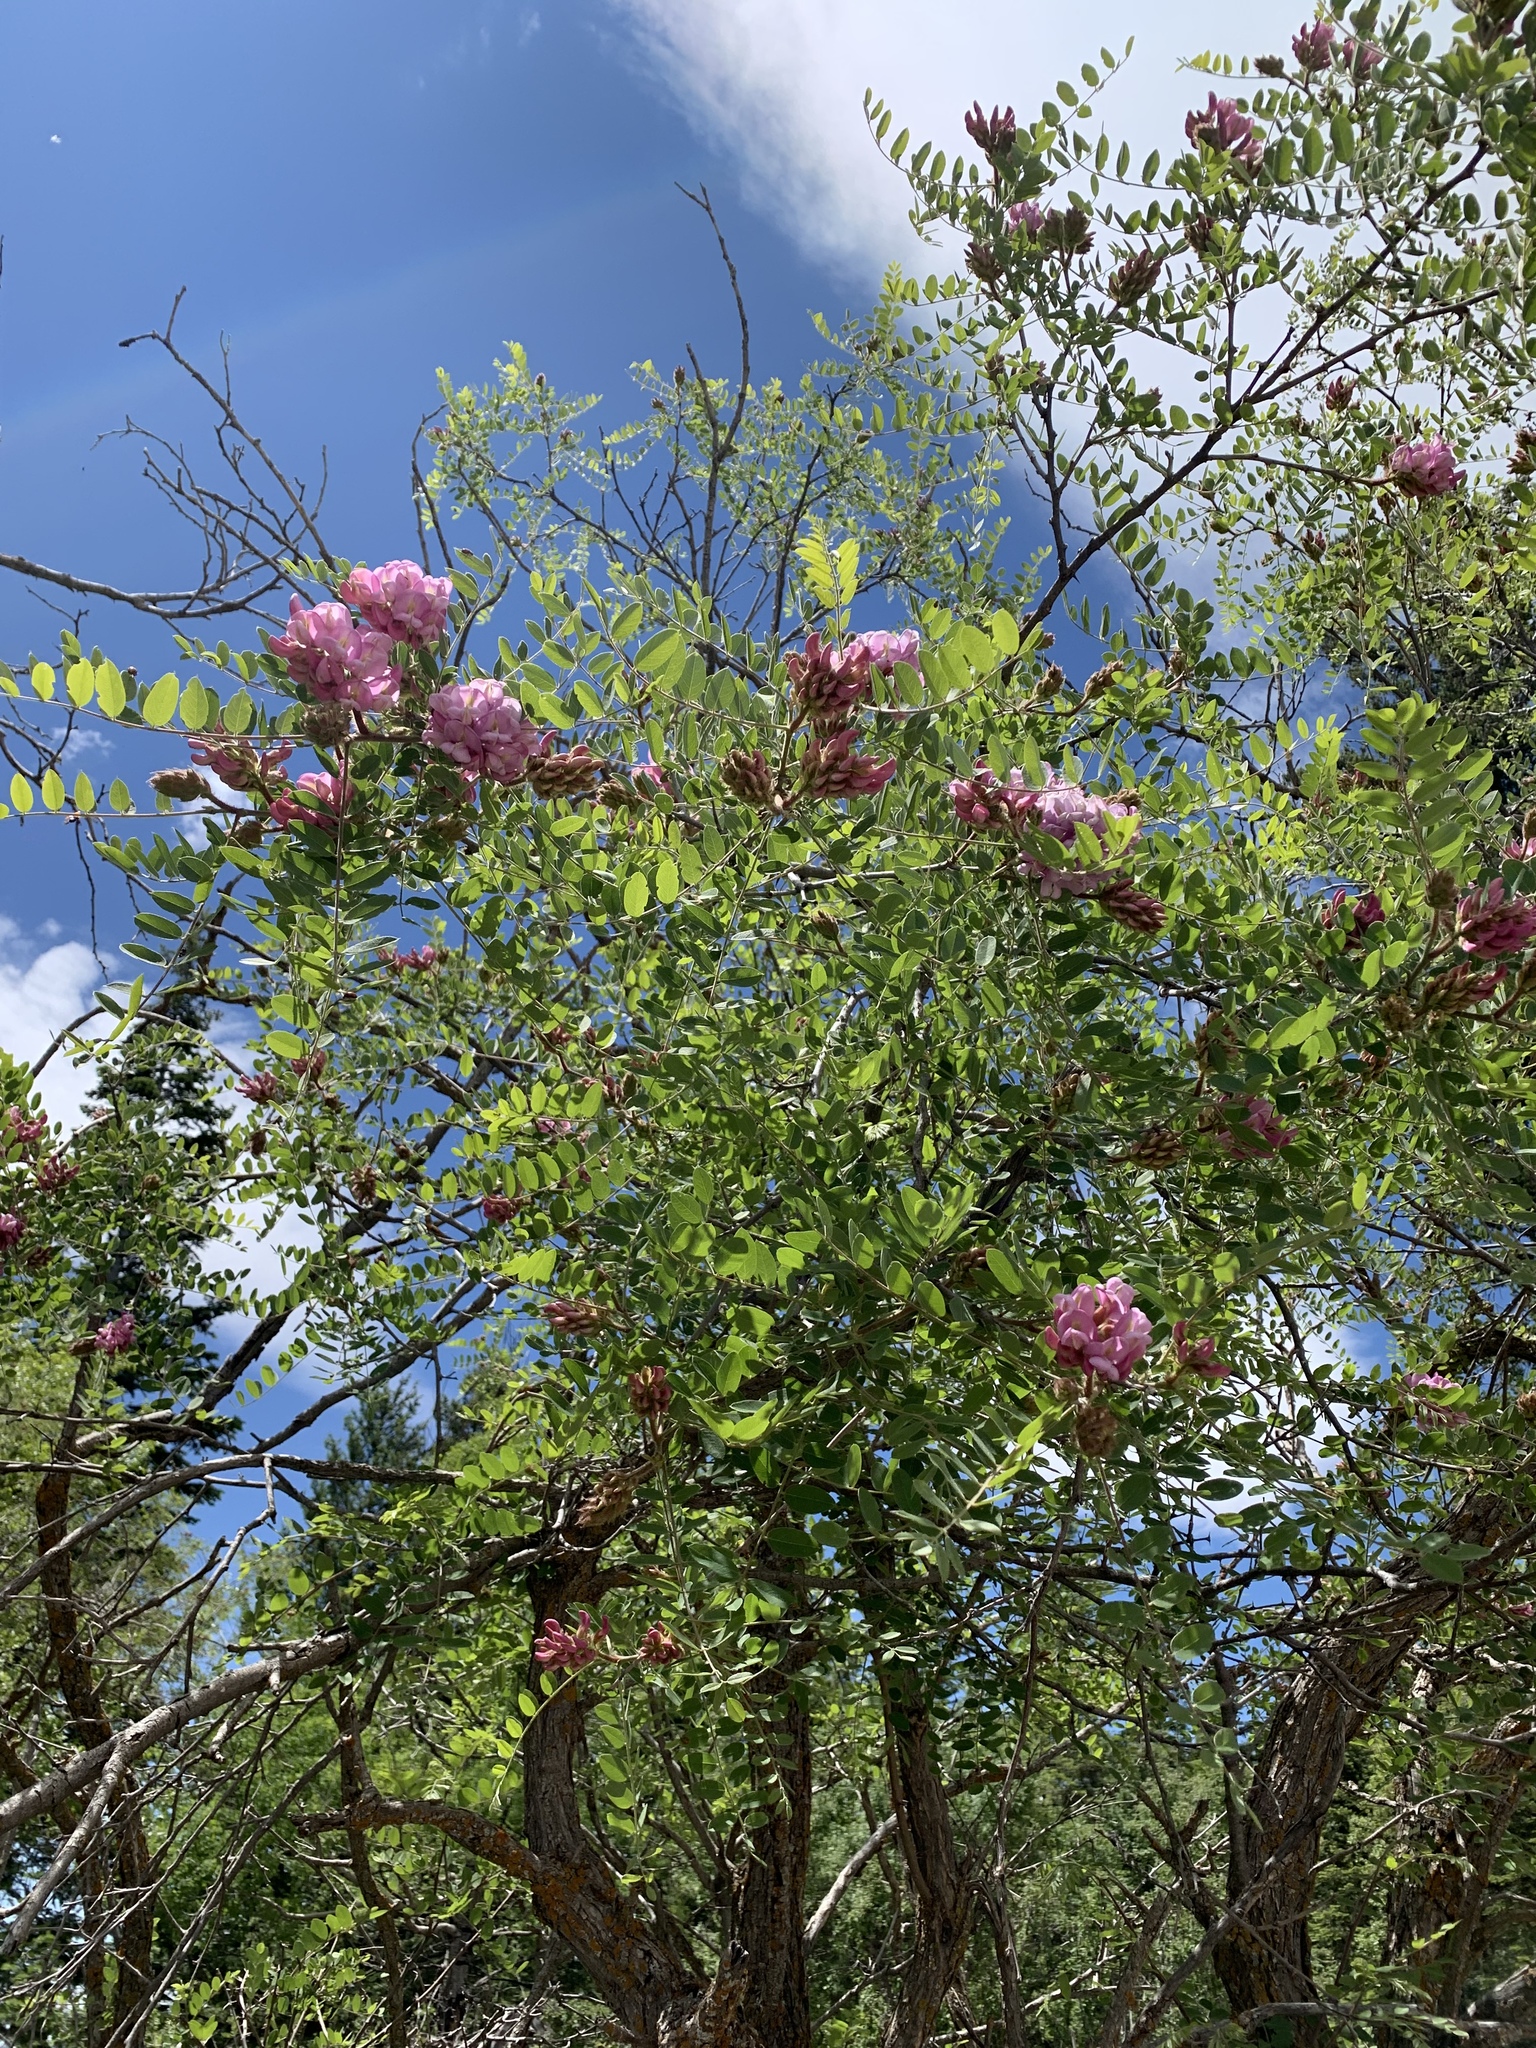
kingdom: Plantae
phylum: Tracheophyta
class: Magnoliopsida
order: Fabales
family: Fabaceae
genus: Robinia
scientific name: Robinia neomexicana
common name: New mexico locust
